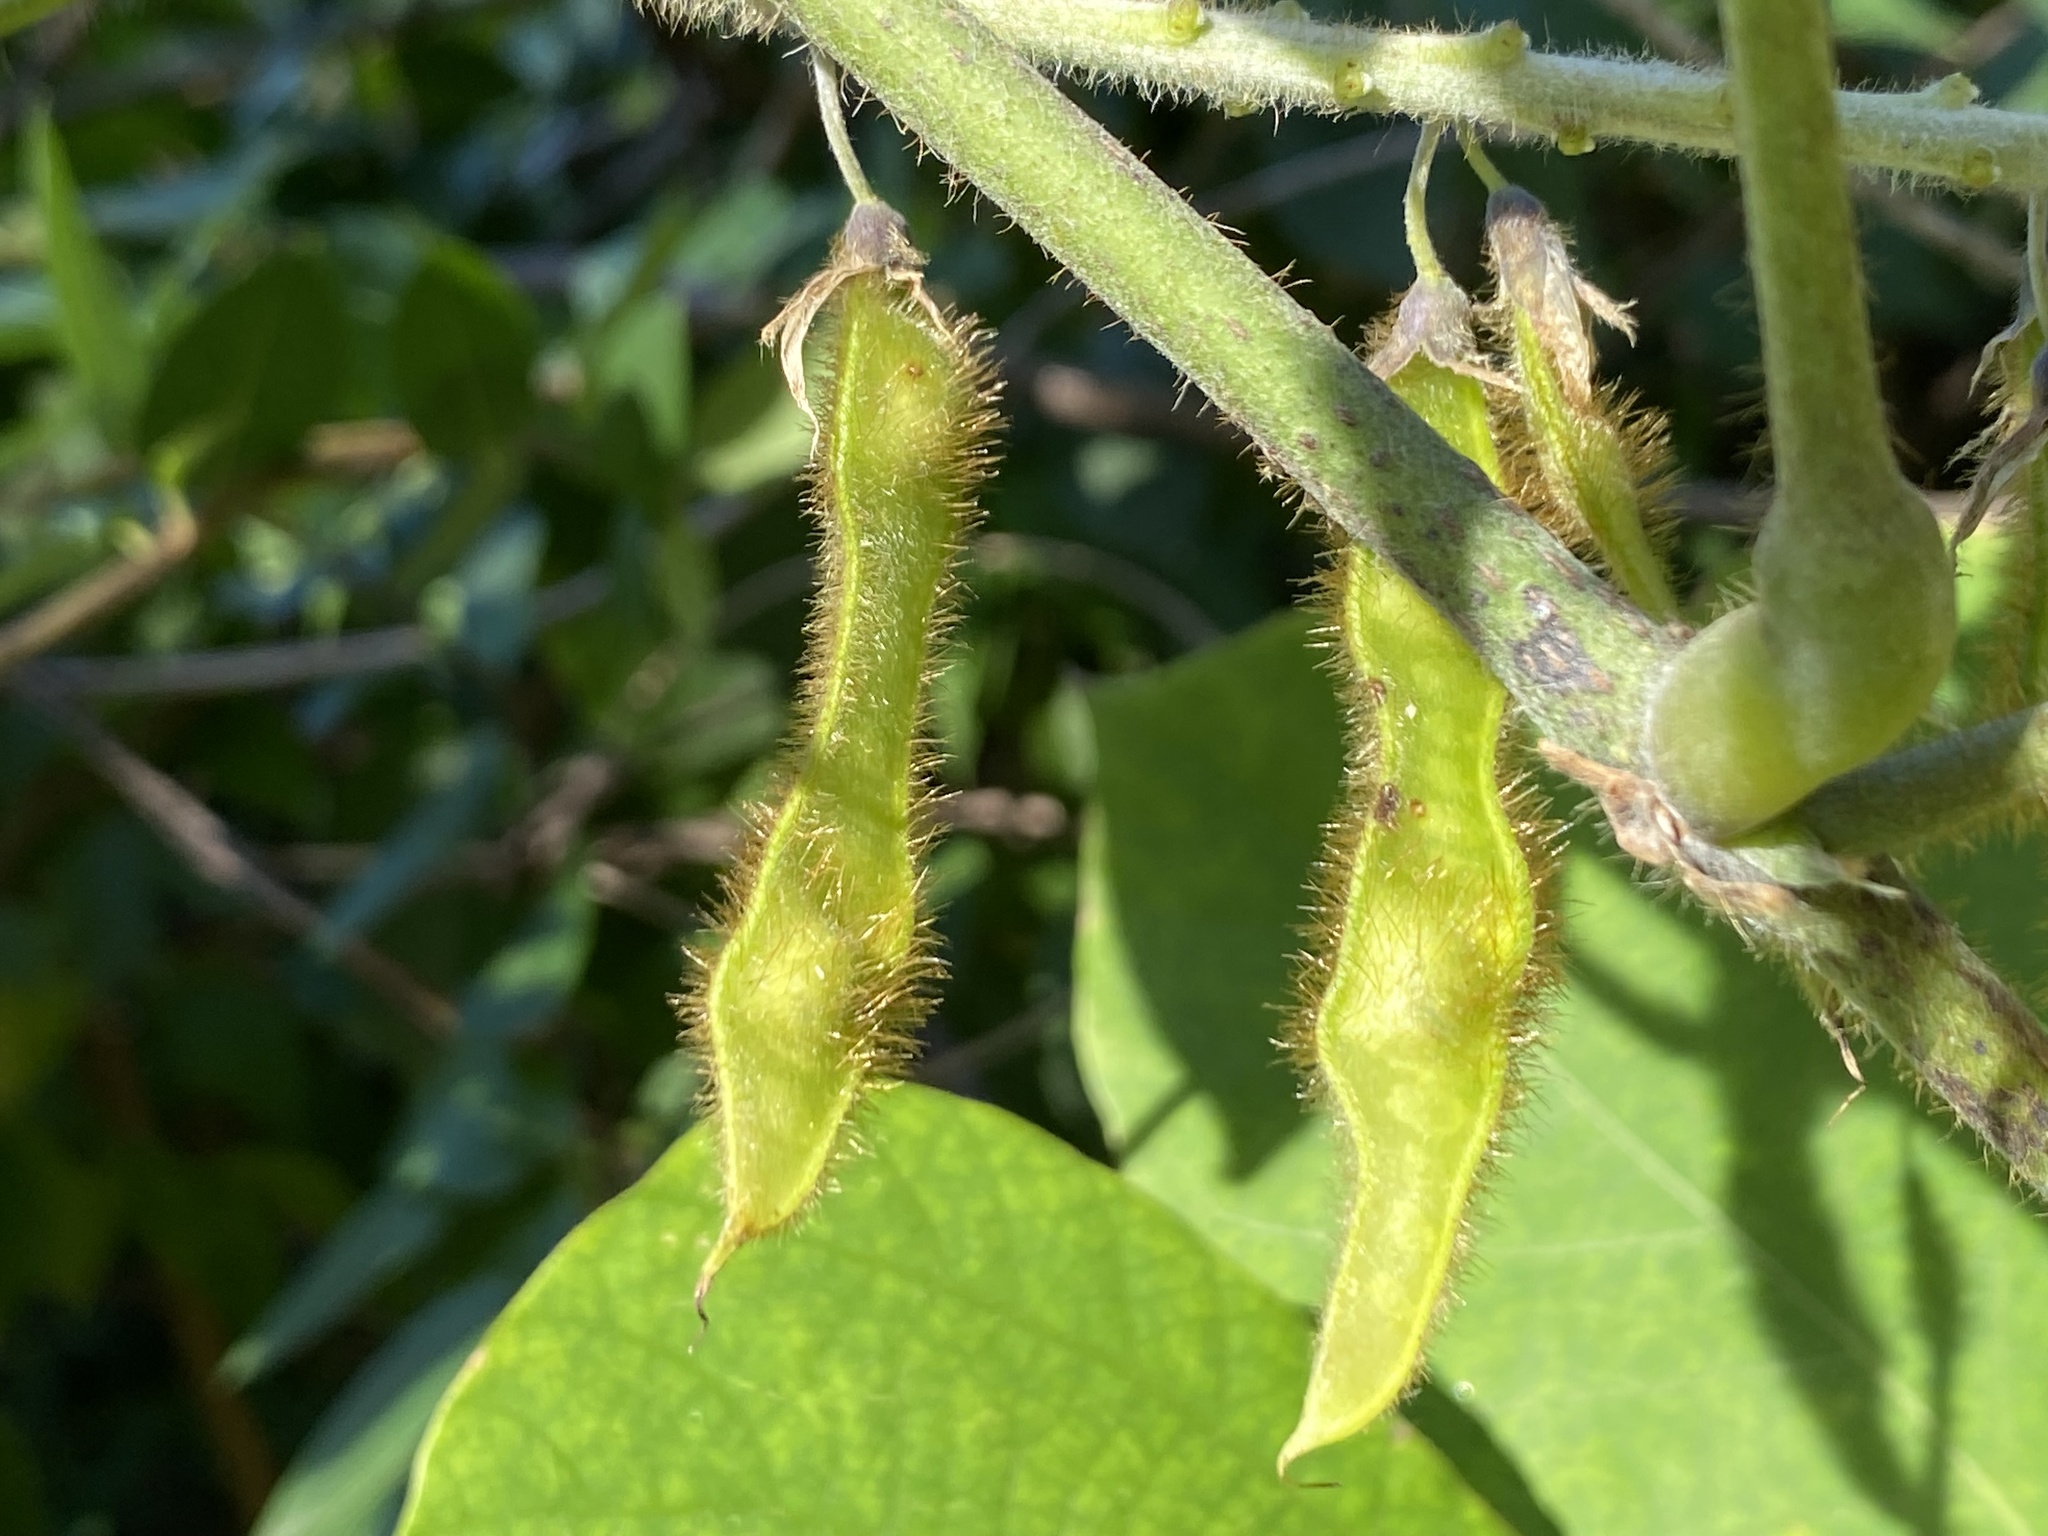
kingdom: Plantae
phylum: Tracheophyta
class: Magnoliopsida
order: Fabales
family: Fabaceae
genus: Pueraria
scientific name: Pueraria montana
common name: Kudzu
